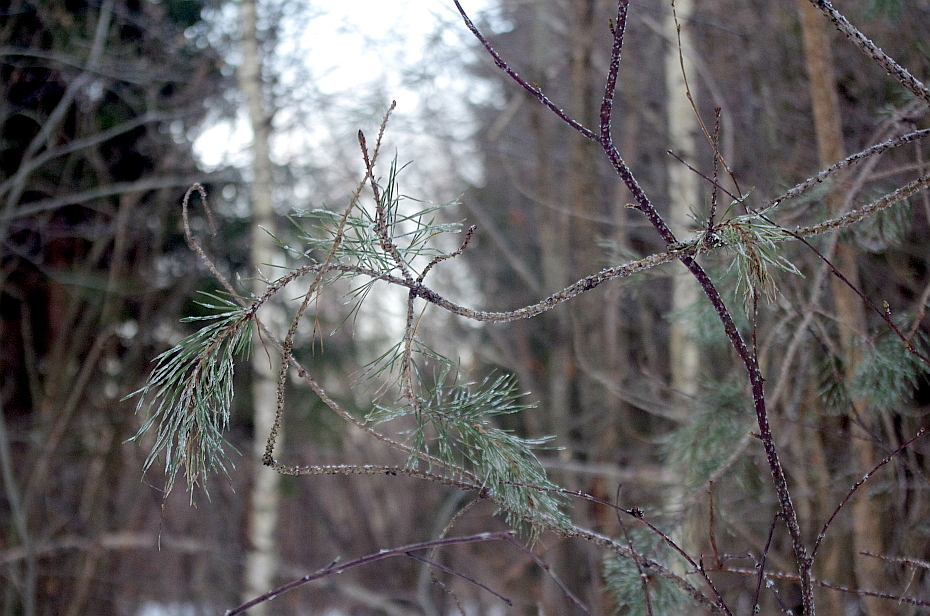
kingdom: Plantae
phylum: Tracheophyta
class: Pinopsida
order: Pinales
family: Pinaceae
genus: Pinus
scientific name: Pinus sylvestris
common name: Scots pine
